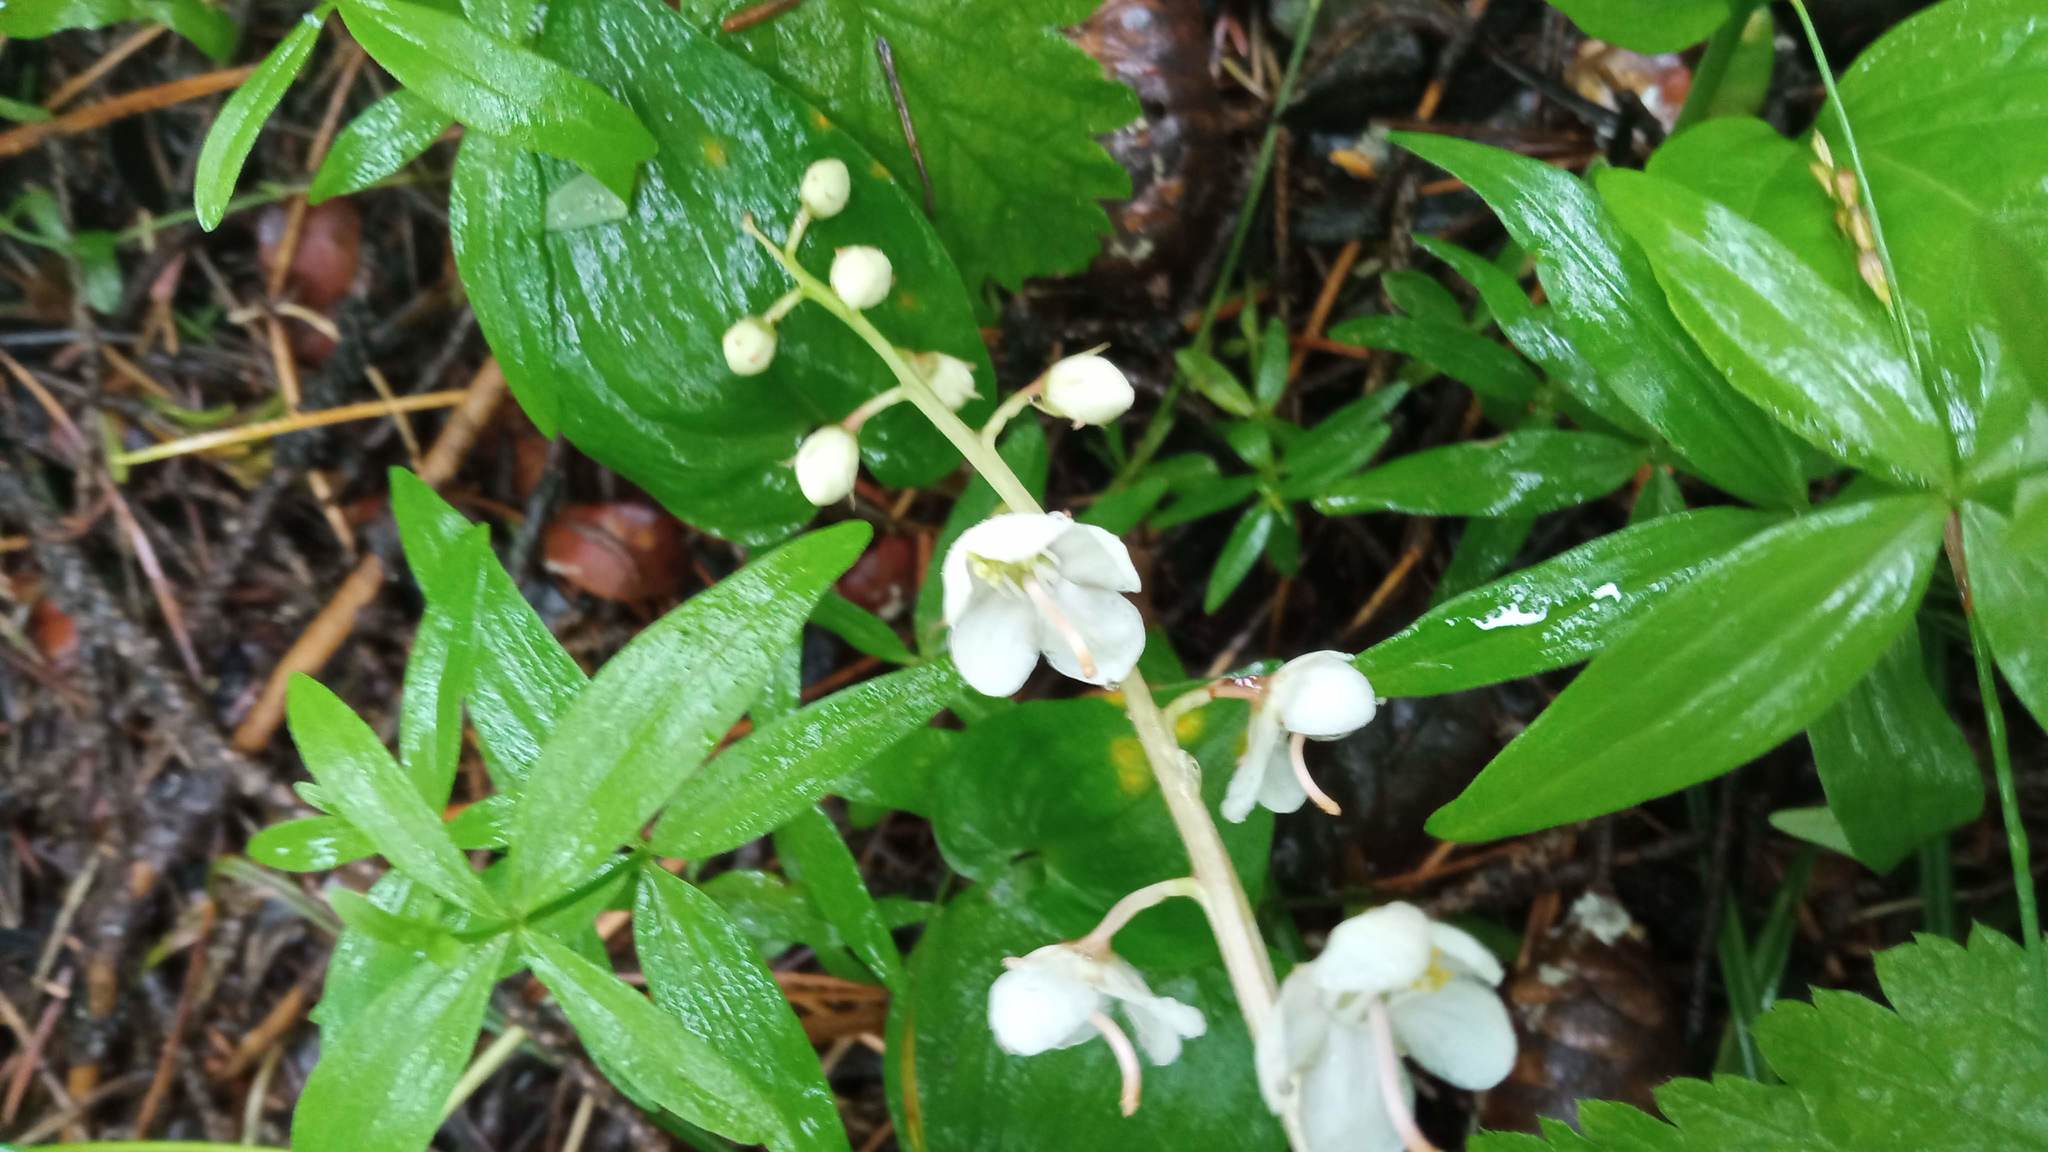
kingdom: Plantae
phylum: Tracheophyta
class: Magnoliopsida
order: Ericales
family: Ericaceae
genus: Pyrola
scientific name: Pyrola rotundifolia
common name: Round-leaved wintergreen
